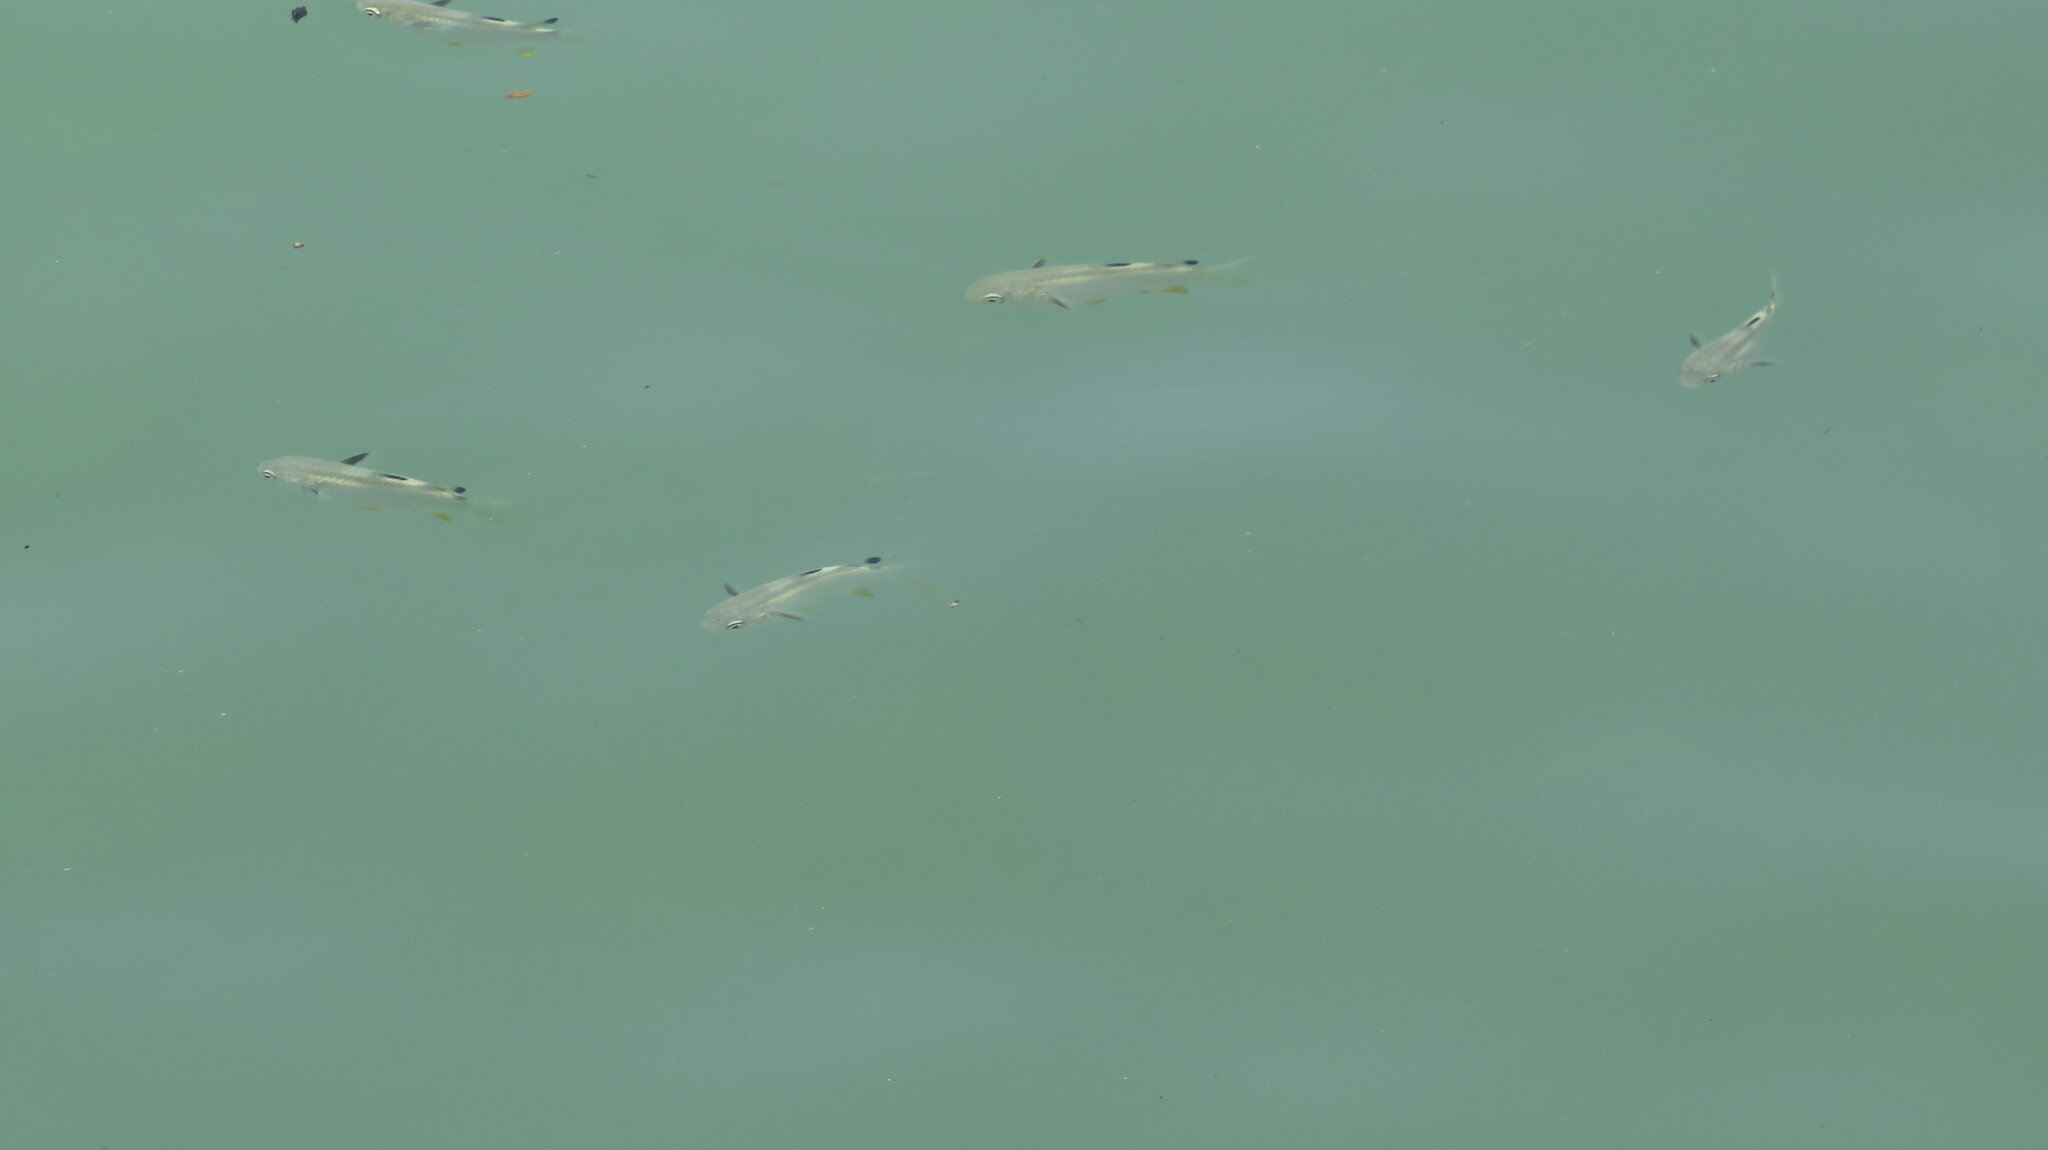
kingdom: Animalia
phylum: Chordata
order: Mugiliformes
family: Mugilidae
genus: Ellochelon
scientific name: Ellochelon vaigiensis
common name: Squaretail mullet
